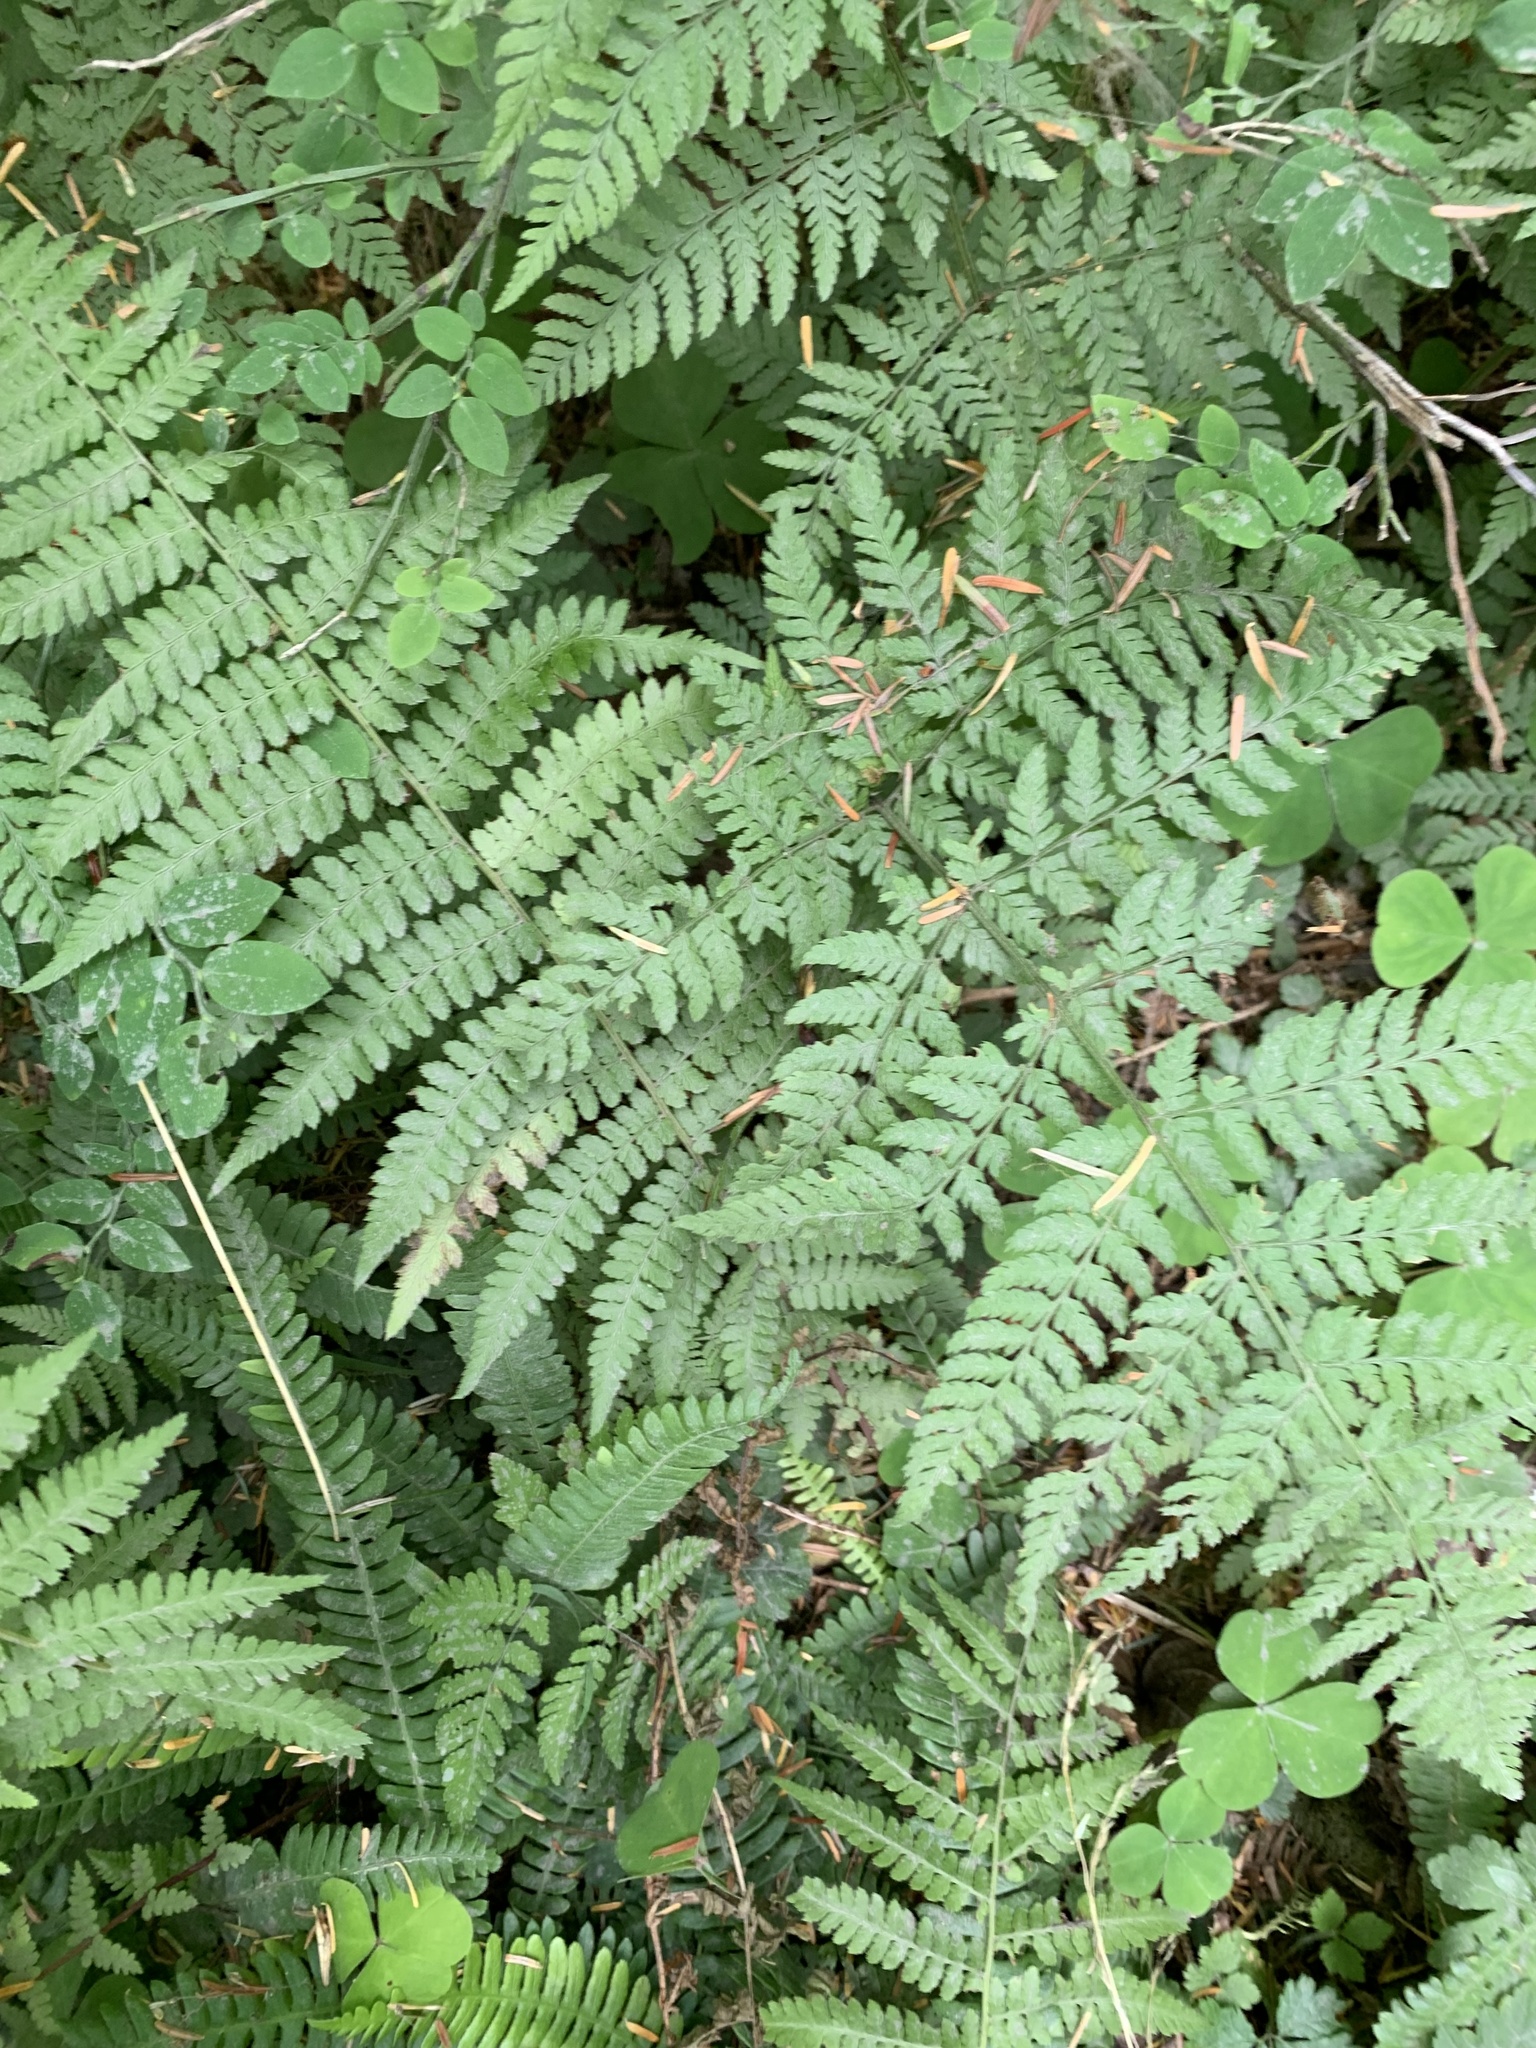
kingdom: Plantae
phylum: Tracheophyta
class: Polypodiopsida
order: Polypodiales
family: Dryopteridaceae
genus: Dryopteris
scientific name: Dryopteris expansa
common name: Northern buckler fern
